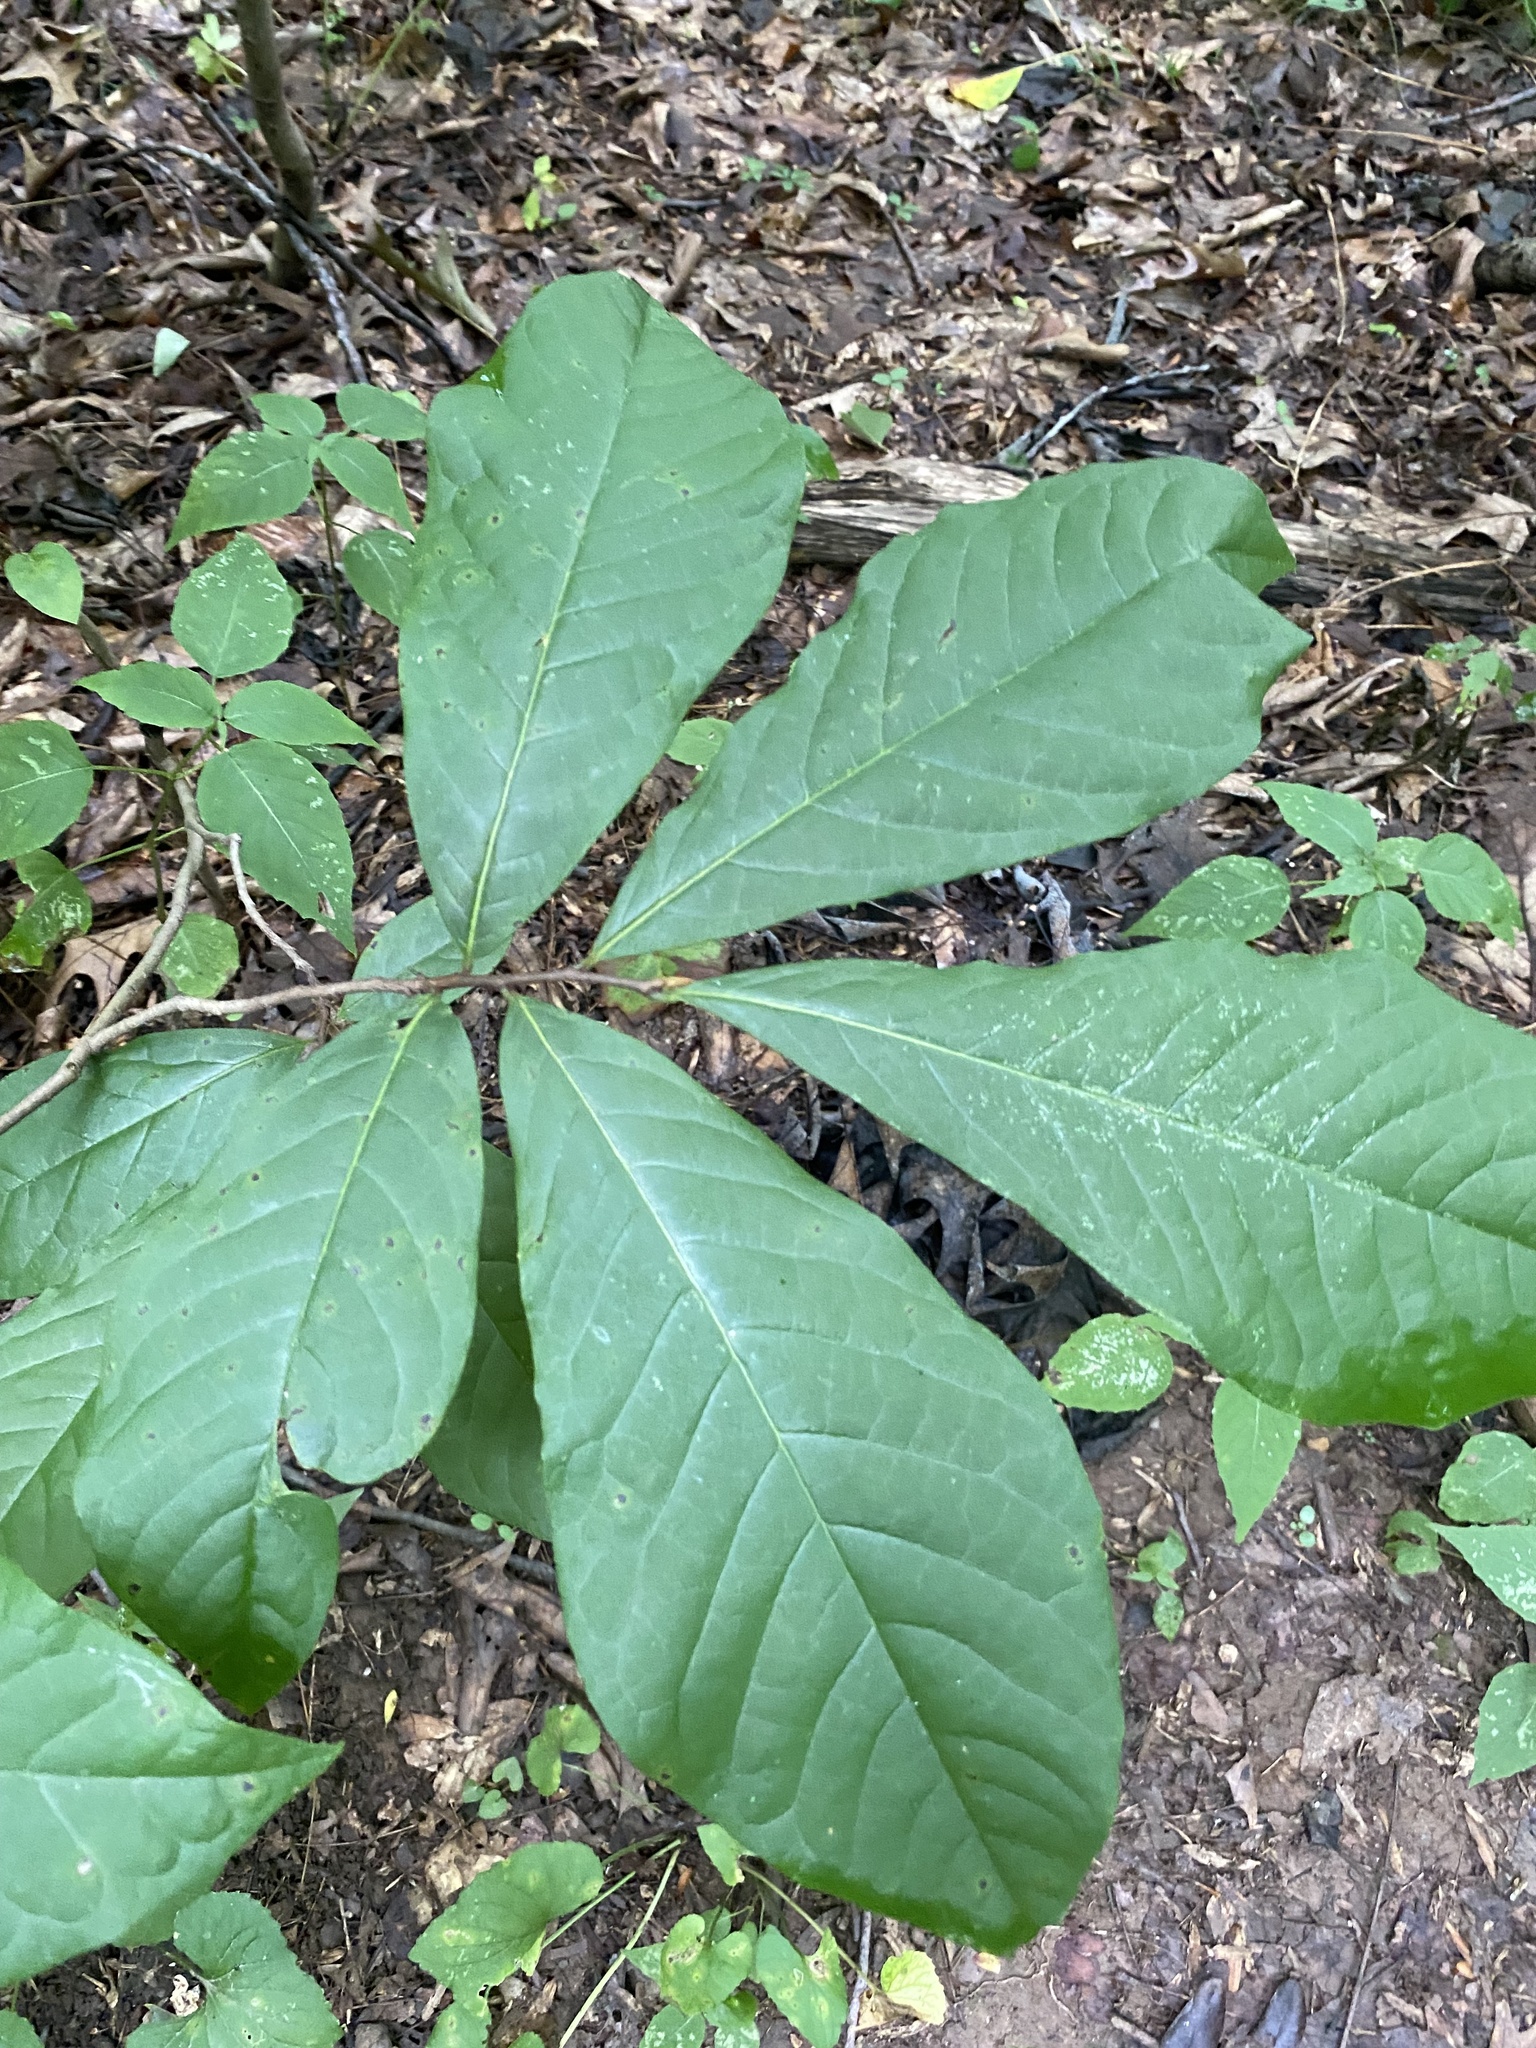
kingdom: Plantae
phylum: Tracheophyta
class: Magnoliopsida
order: Magnoliales
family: Annonaceae
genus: Asimina
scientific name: Asimina triloba
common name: Dog-banana
